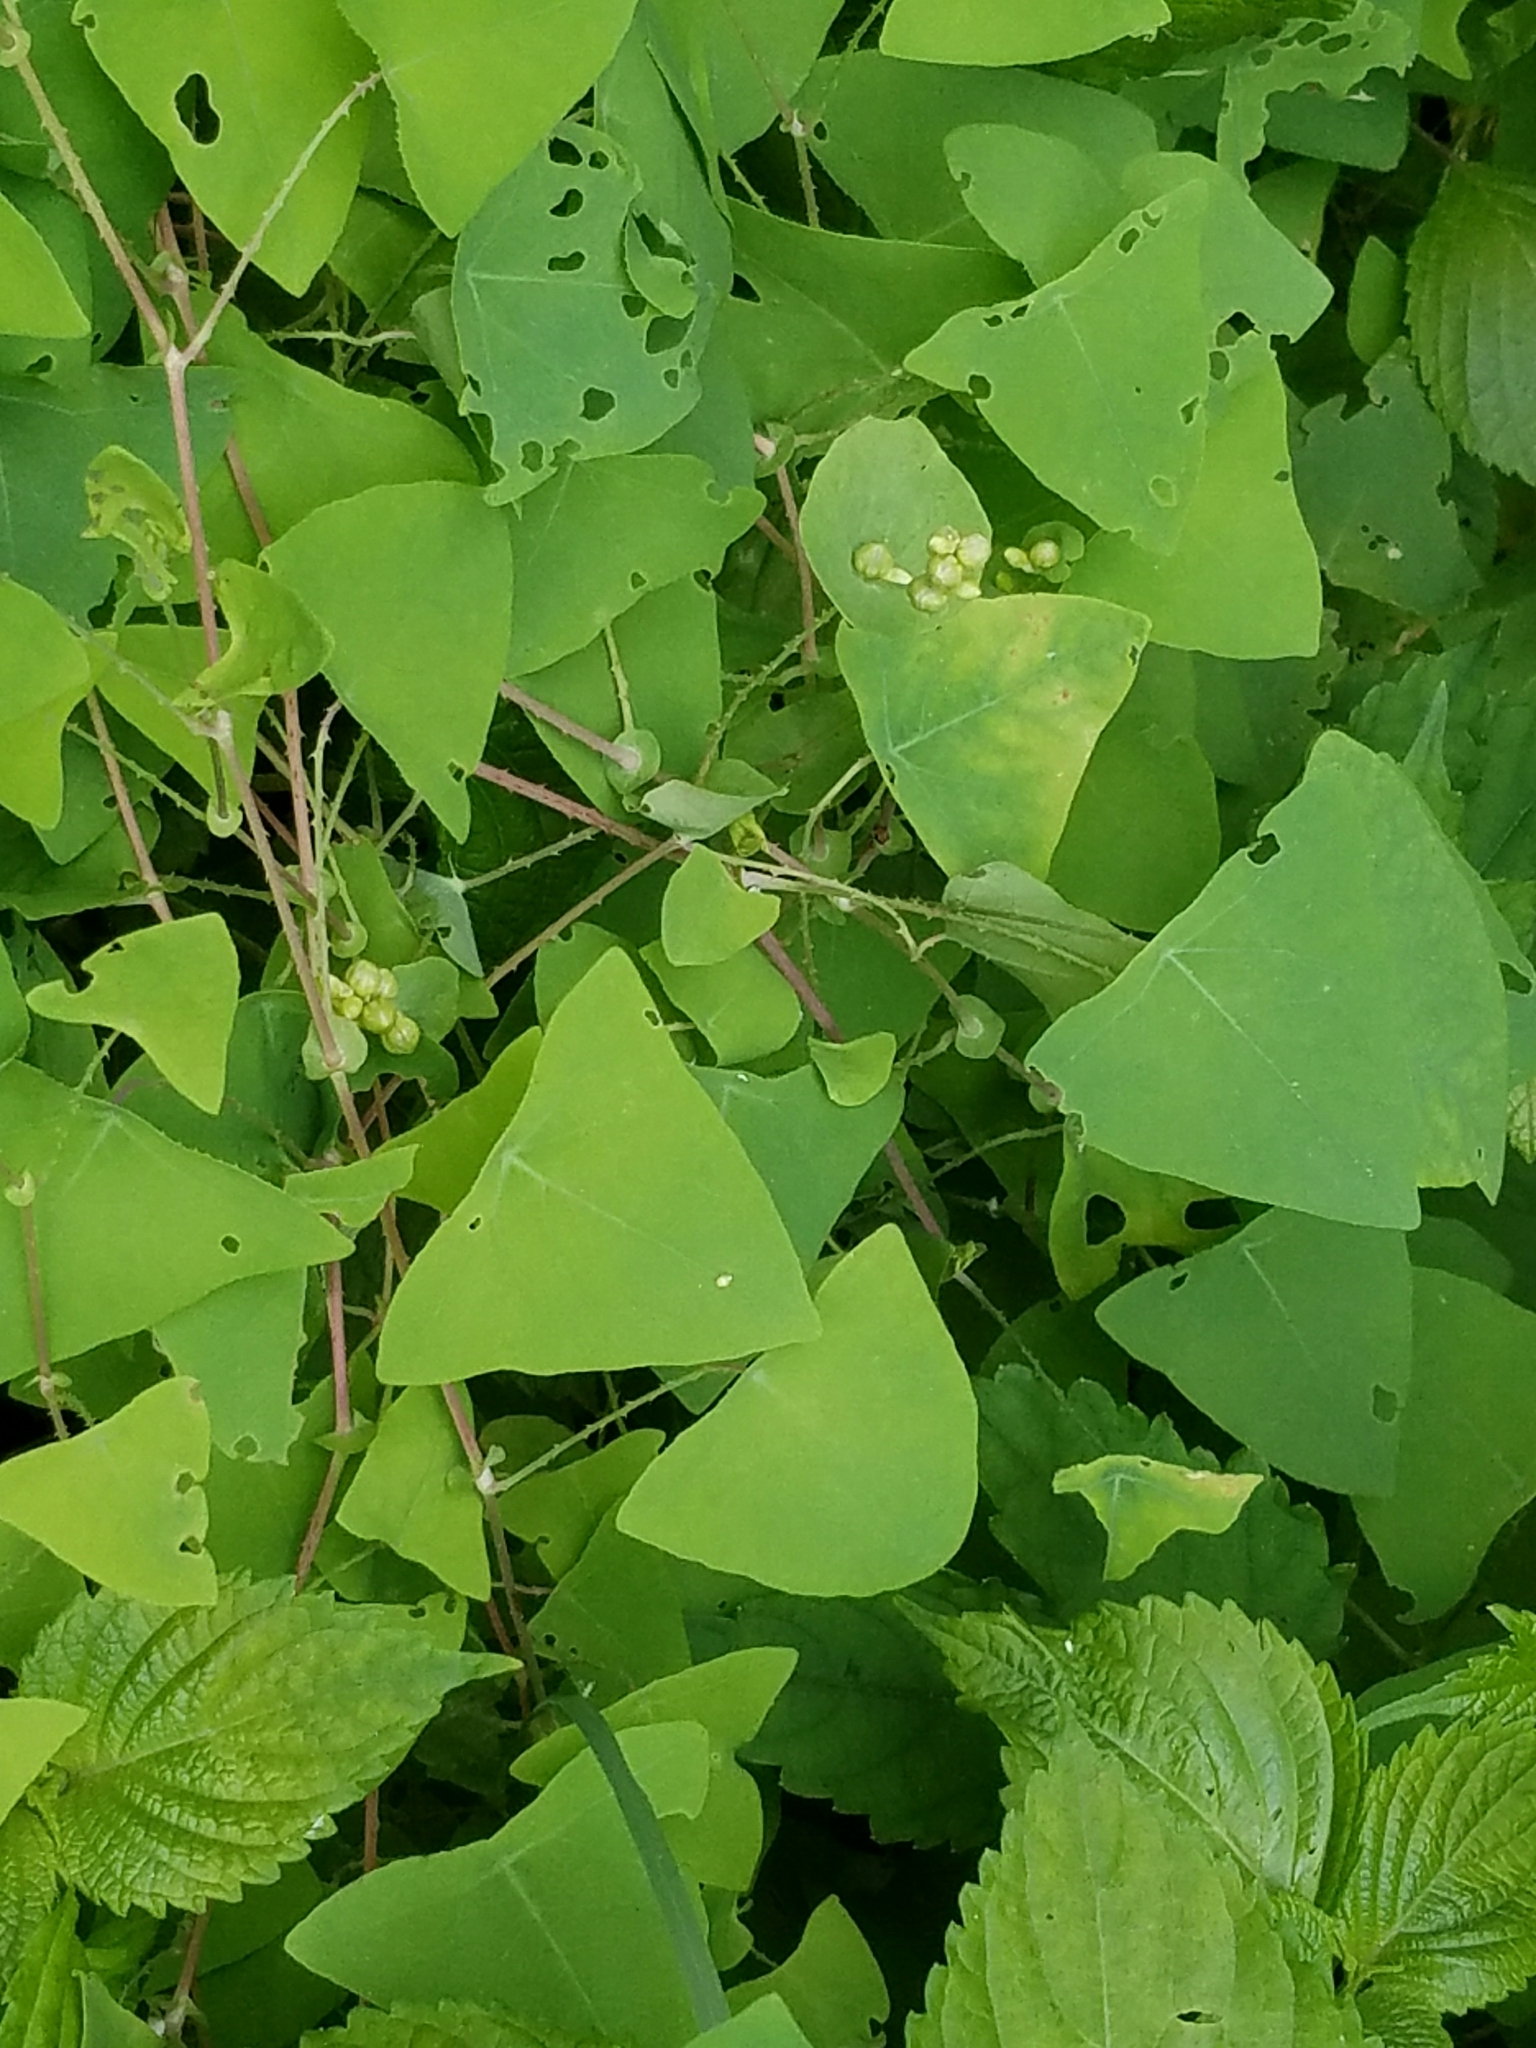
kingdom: Plantae
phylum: Tracheophyta
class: Magnoliopsida
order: Caryophyllales
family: Polygonaceae
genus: Persicaria
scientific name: Persicaria perfoliata
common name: Asiatic tearthumb
